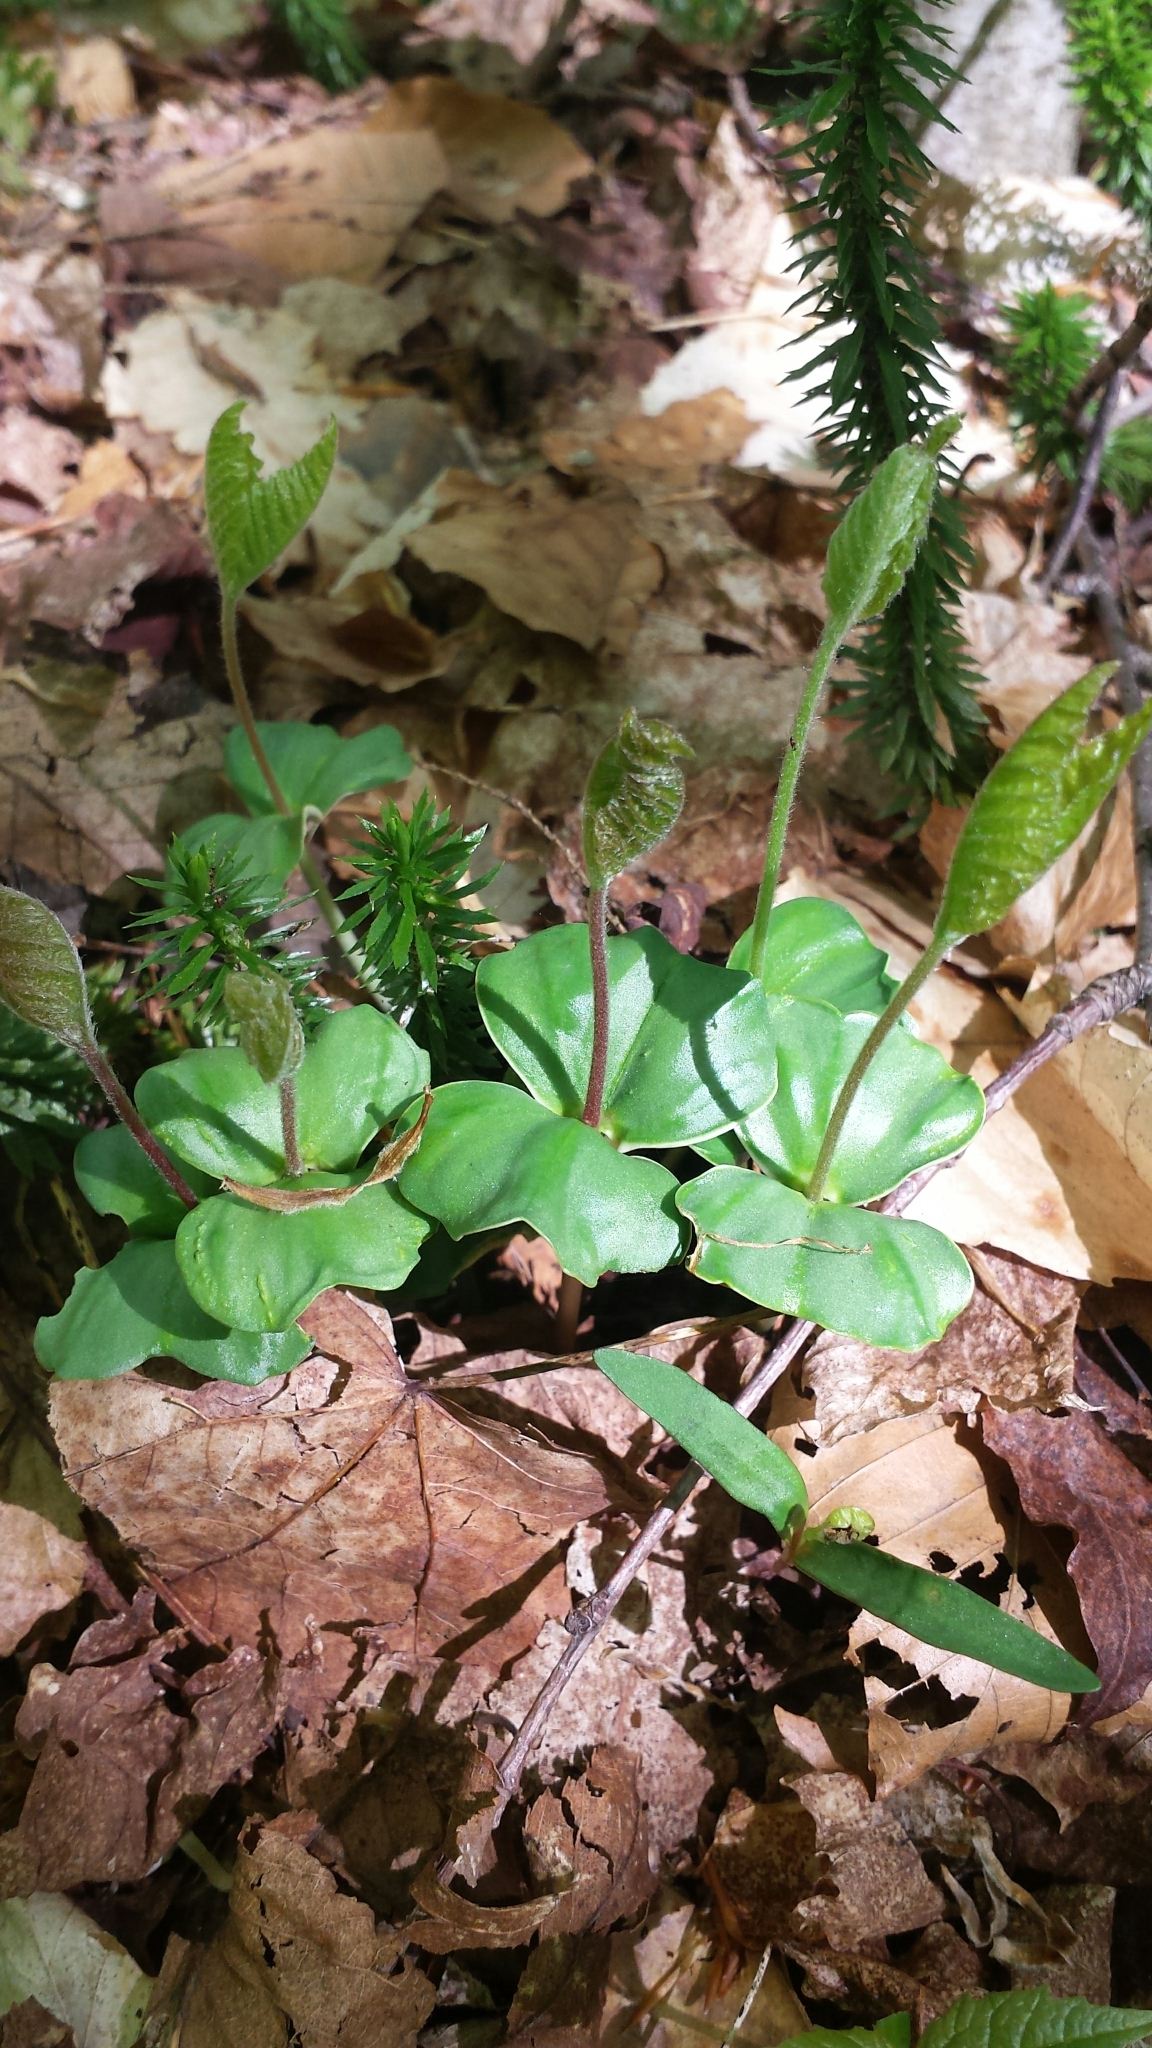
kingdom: Plantae
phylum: Tracheophyta
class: Magnoliopsida
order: Fagales
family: Fagaceae
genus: Fagus
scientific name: Fagus grandifolia
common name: American beech
